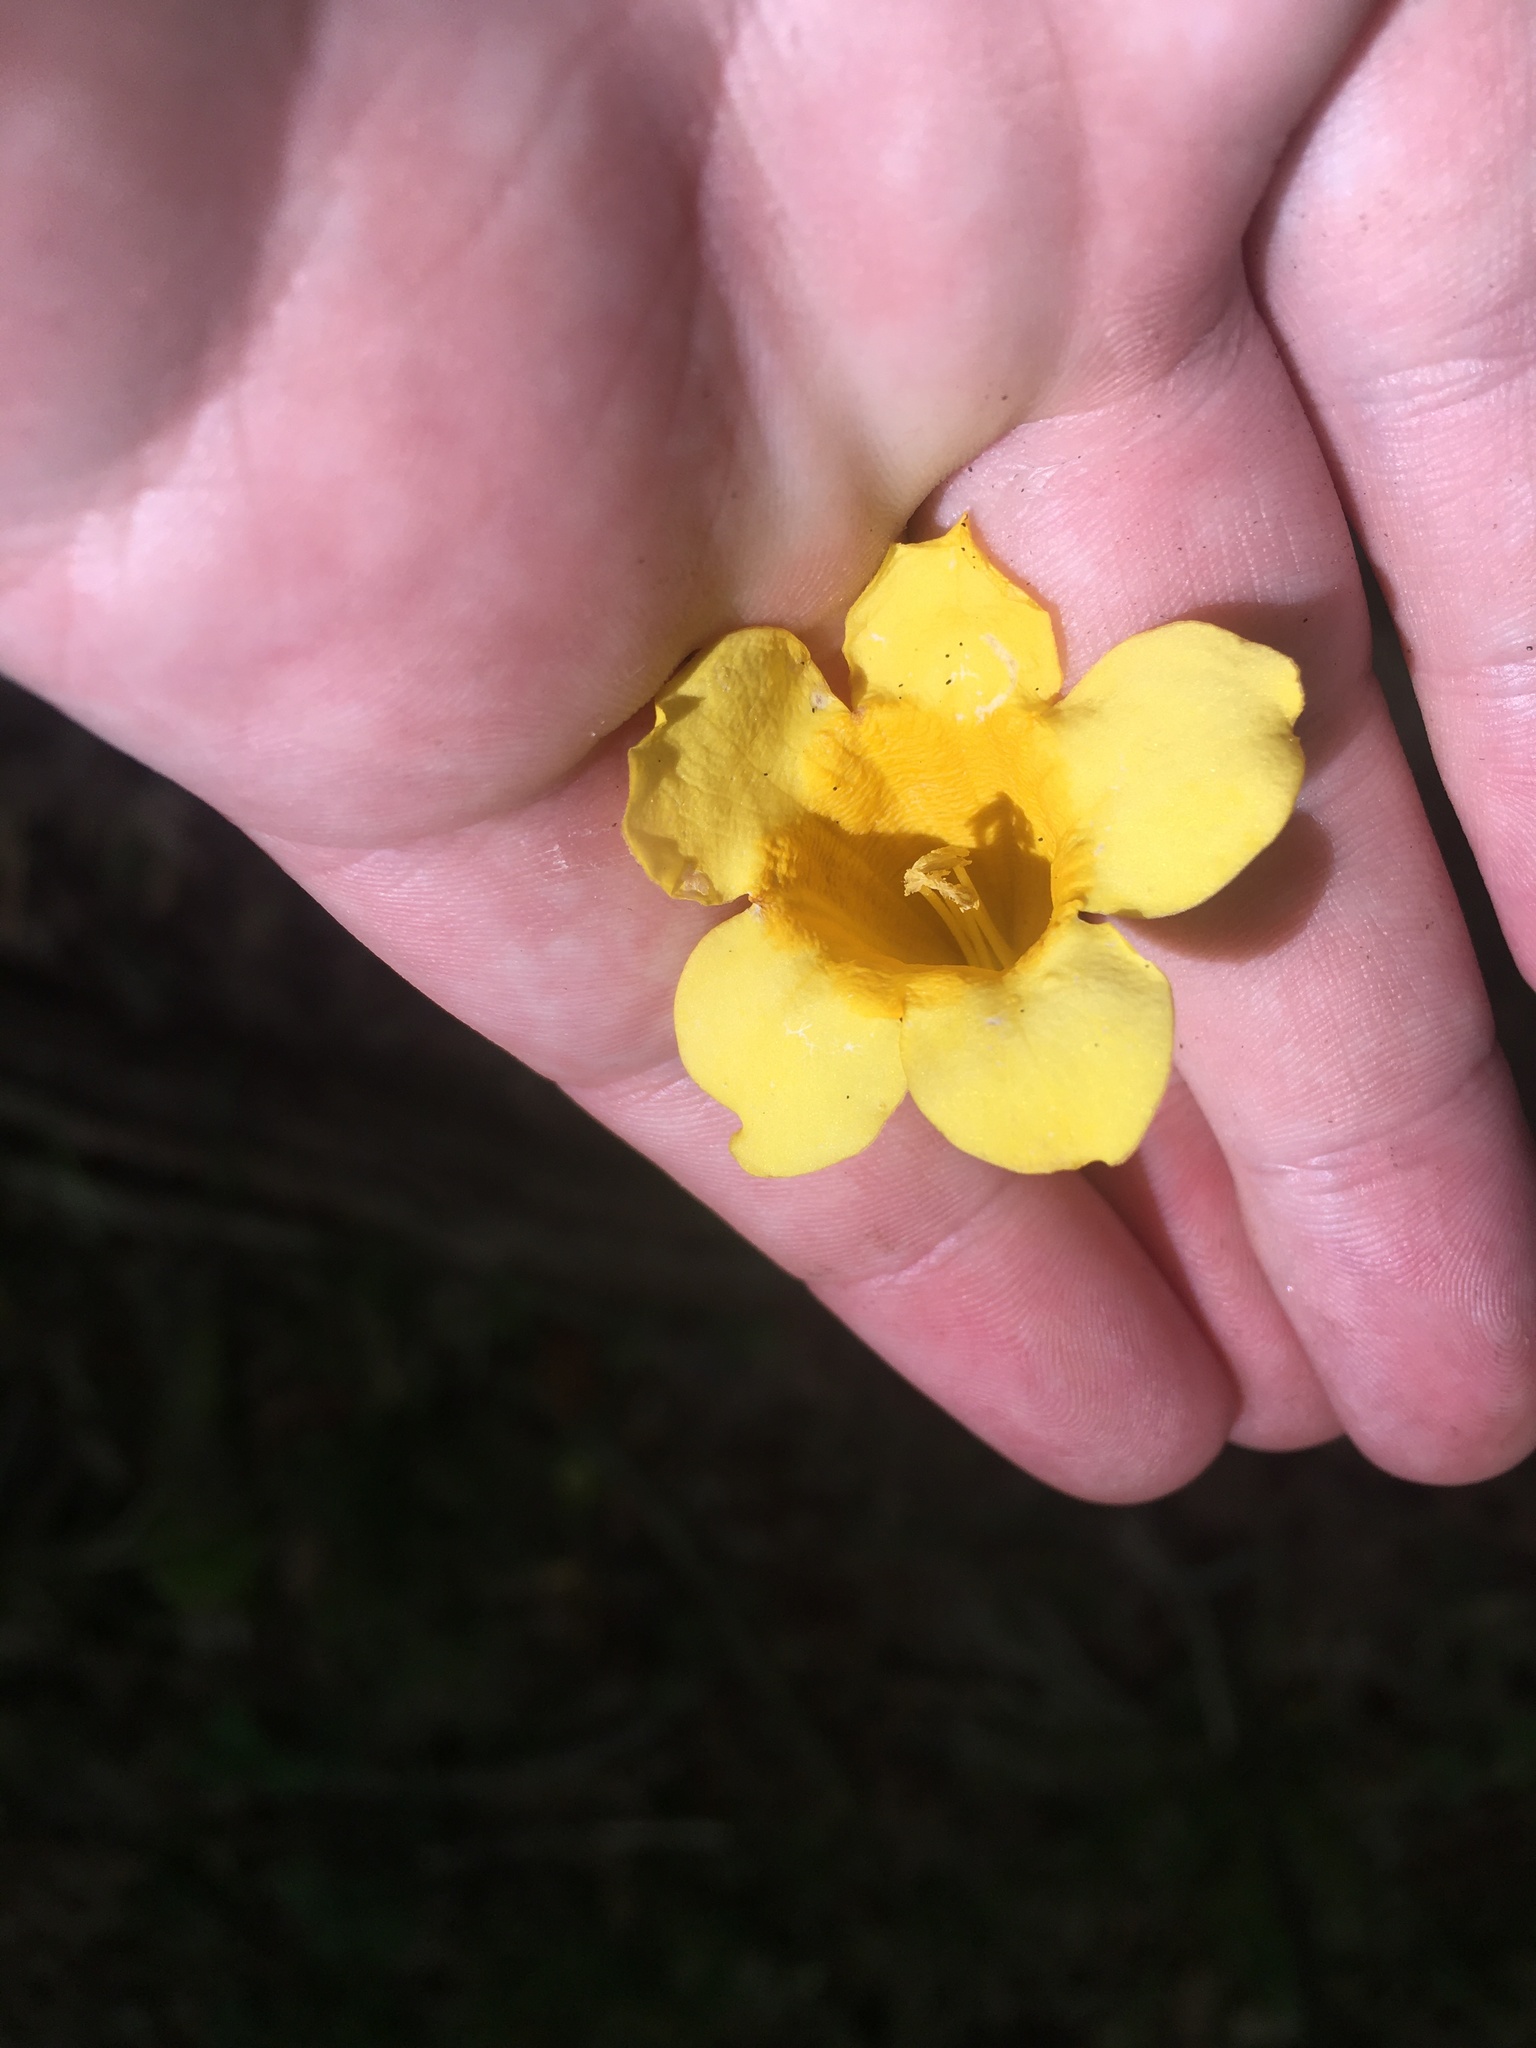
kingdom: Plantae
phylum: Tracheophyta
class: Magnoliopsida
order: Gentianales
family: Gelsemiaceae
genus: Gelsemium
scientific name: Gelsemium sempervirens
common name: Carolina-jasmine
